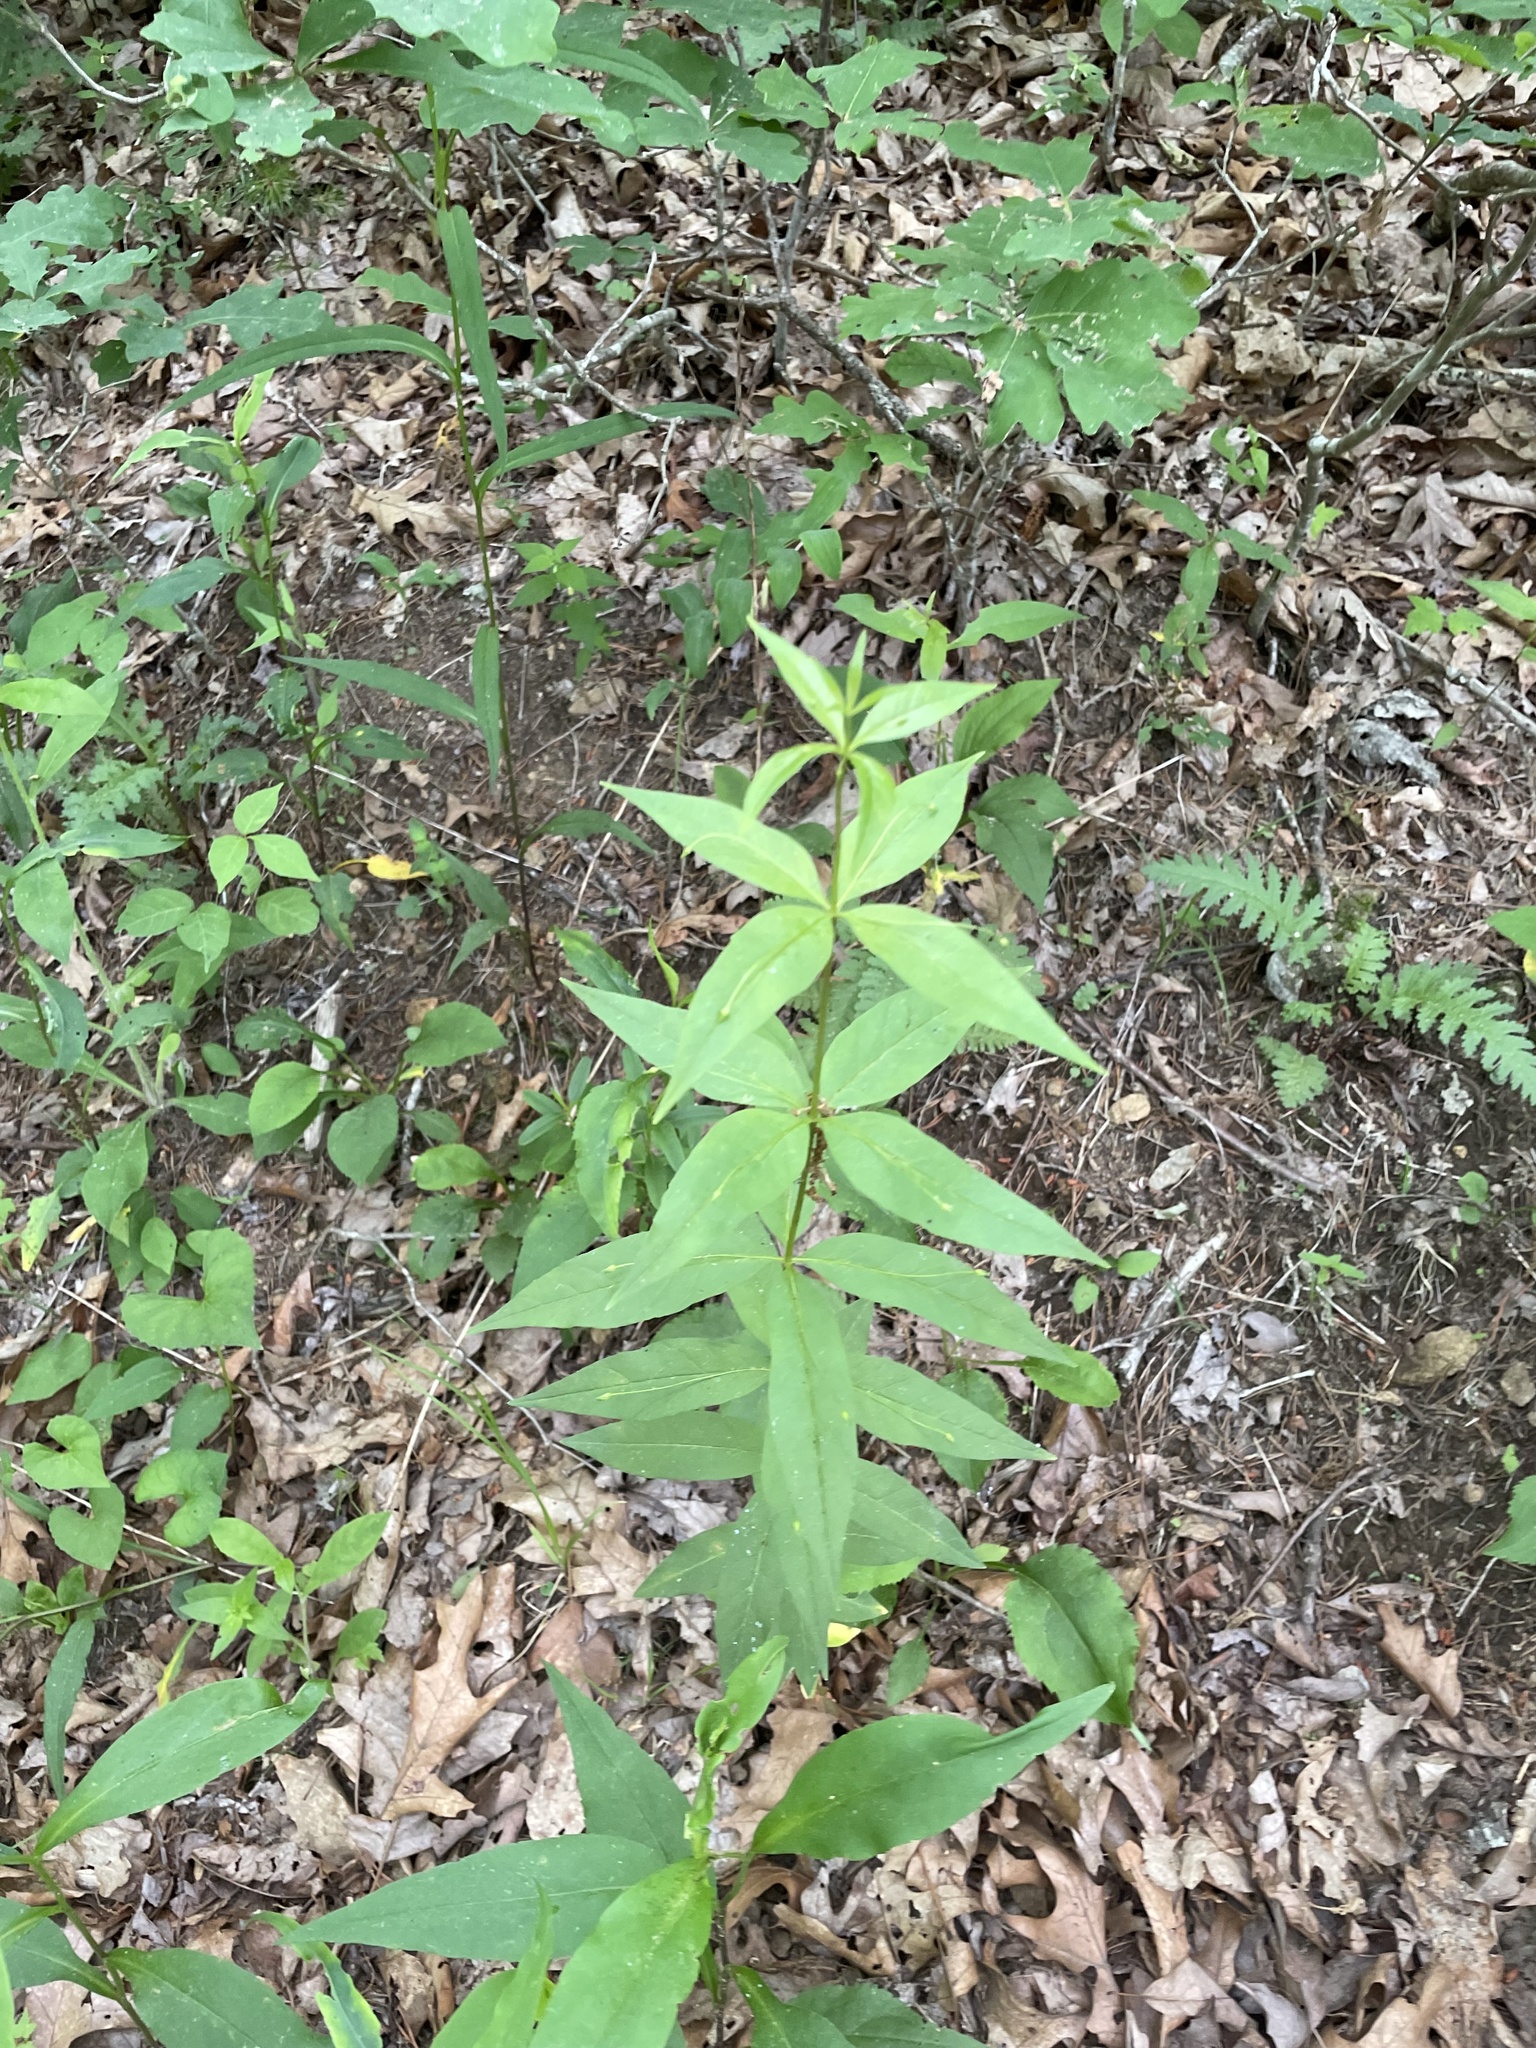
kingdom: Plantae
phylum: Tracheophyta
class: Magnoliopsida
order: Ericales
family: Primulaceae
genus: Lysimachia
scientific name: Lysimachia quadrifolia
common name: Whorled loosestrife
